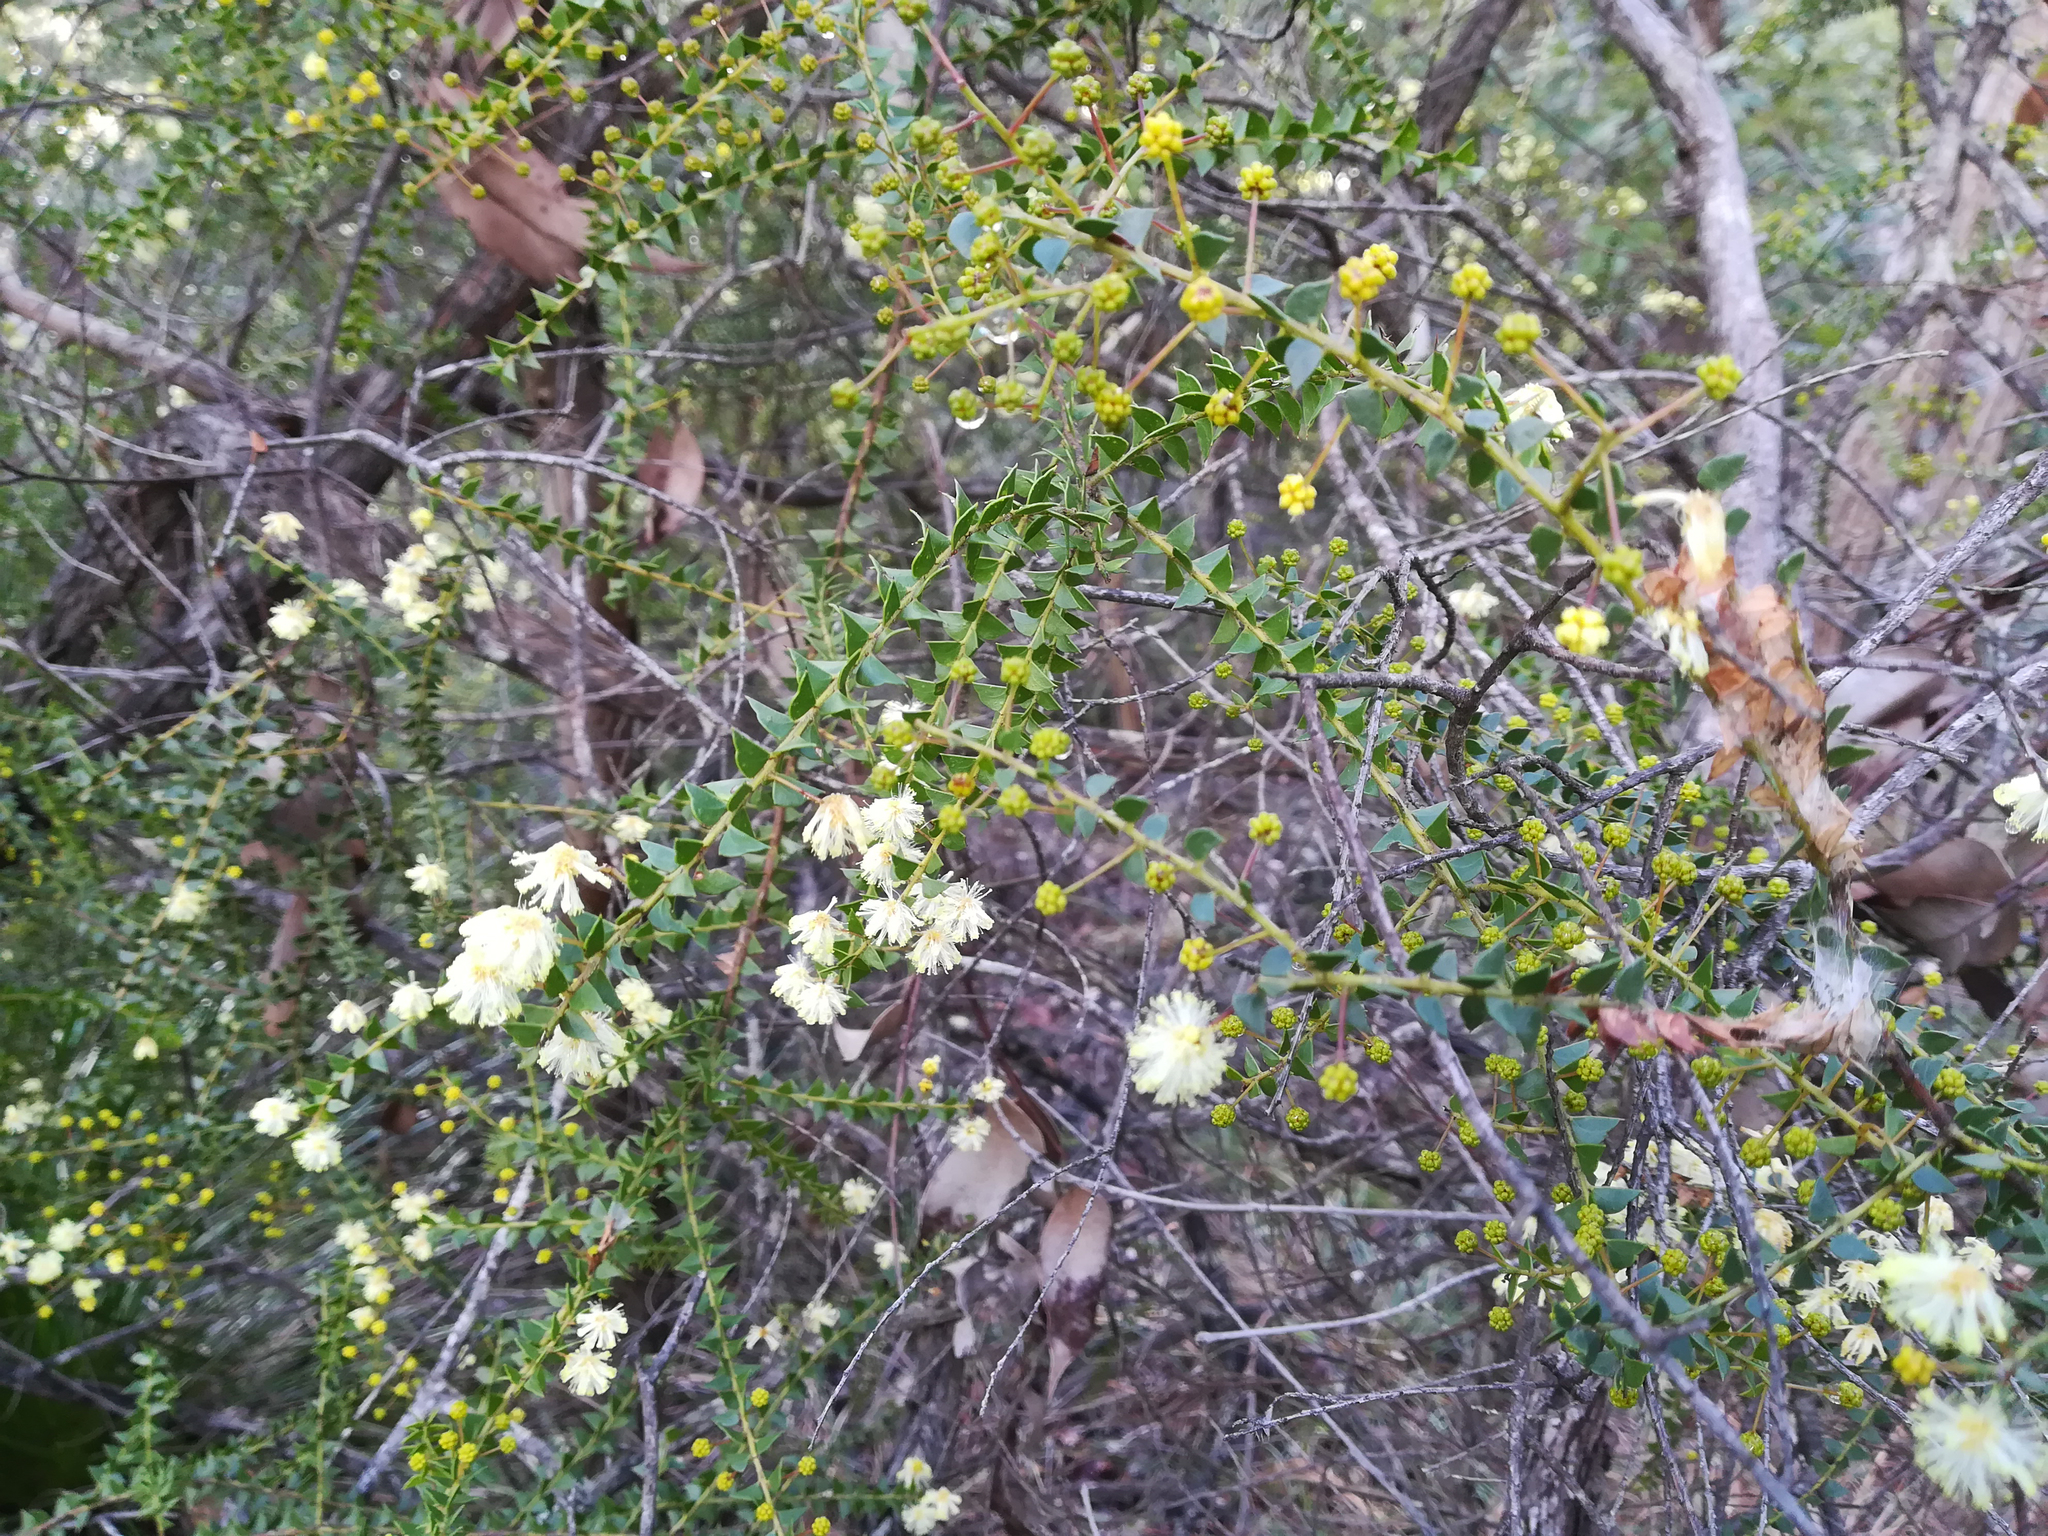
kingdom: Plantae
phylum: Tracheophyta
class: Magnoliopsida
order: Fabales
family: Fabaceae
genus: Acacia
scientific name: Acacia hubbardiana
